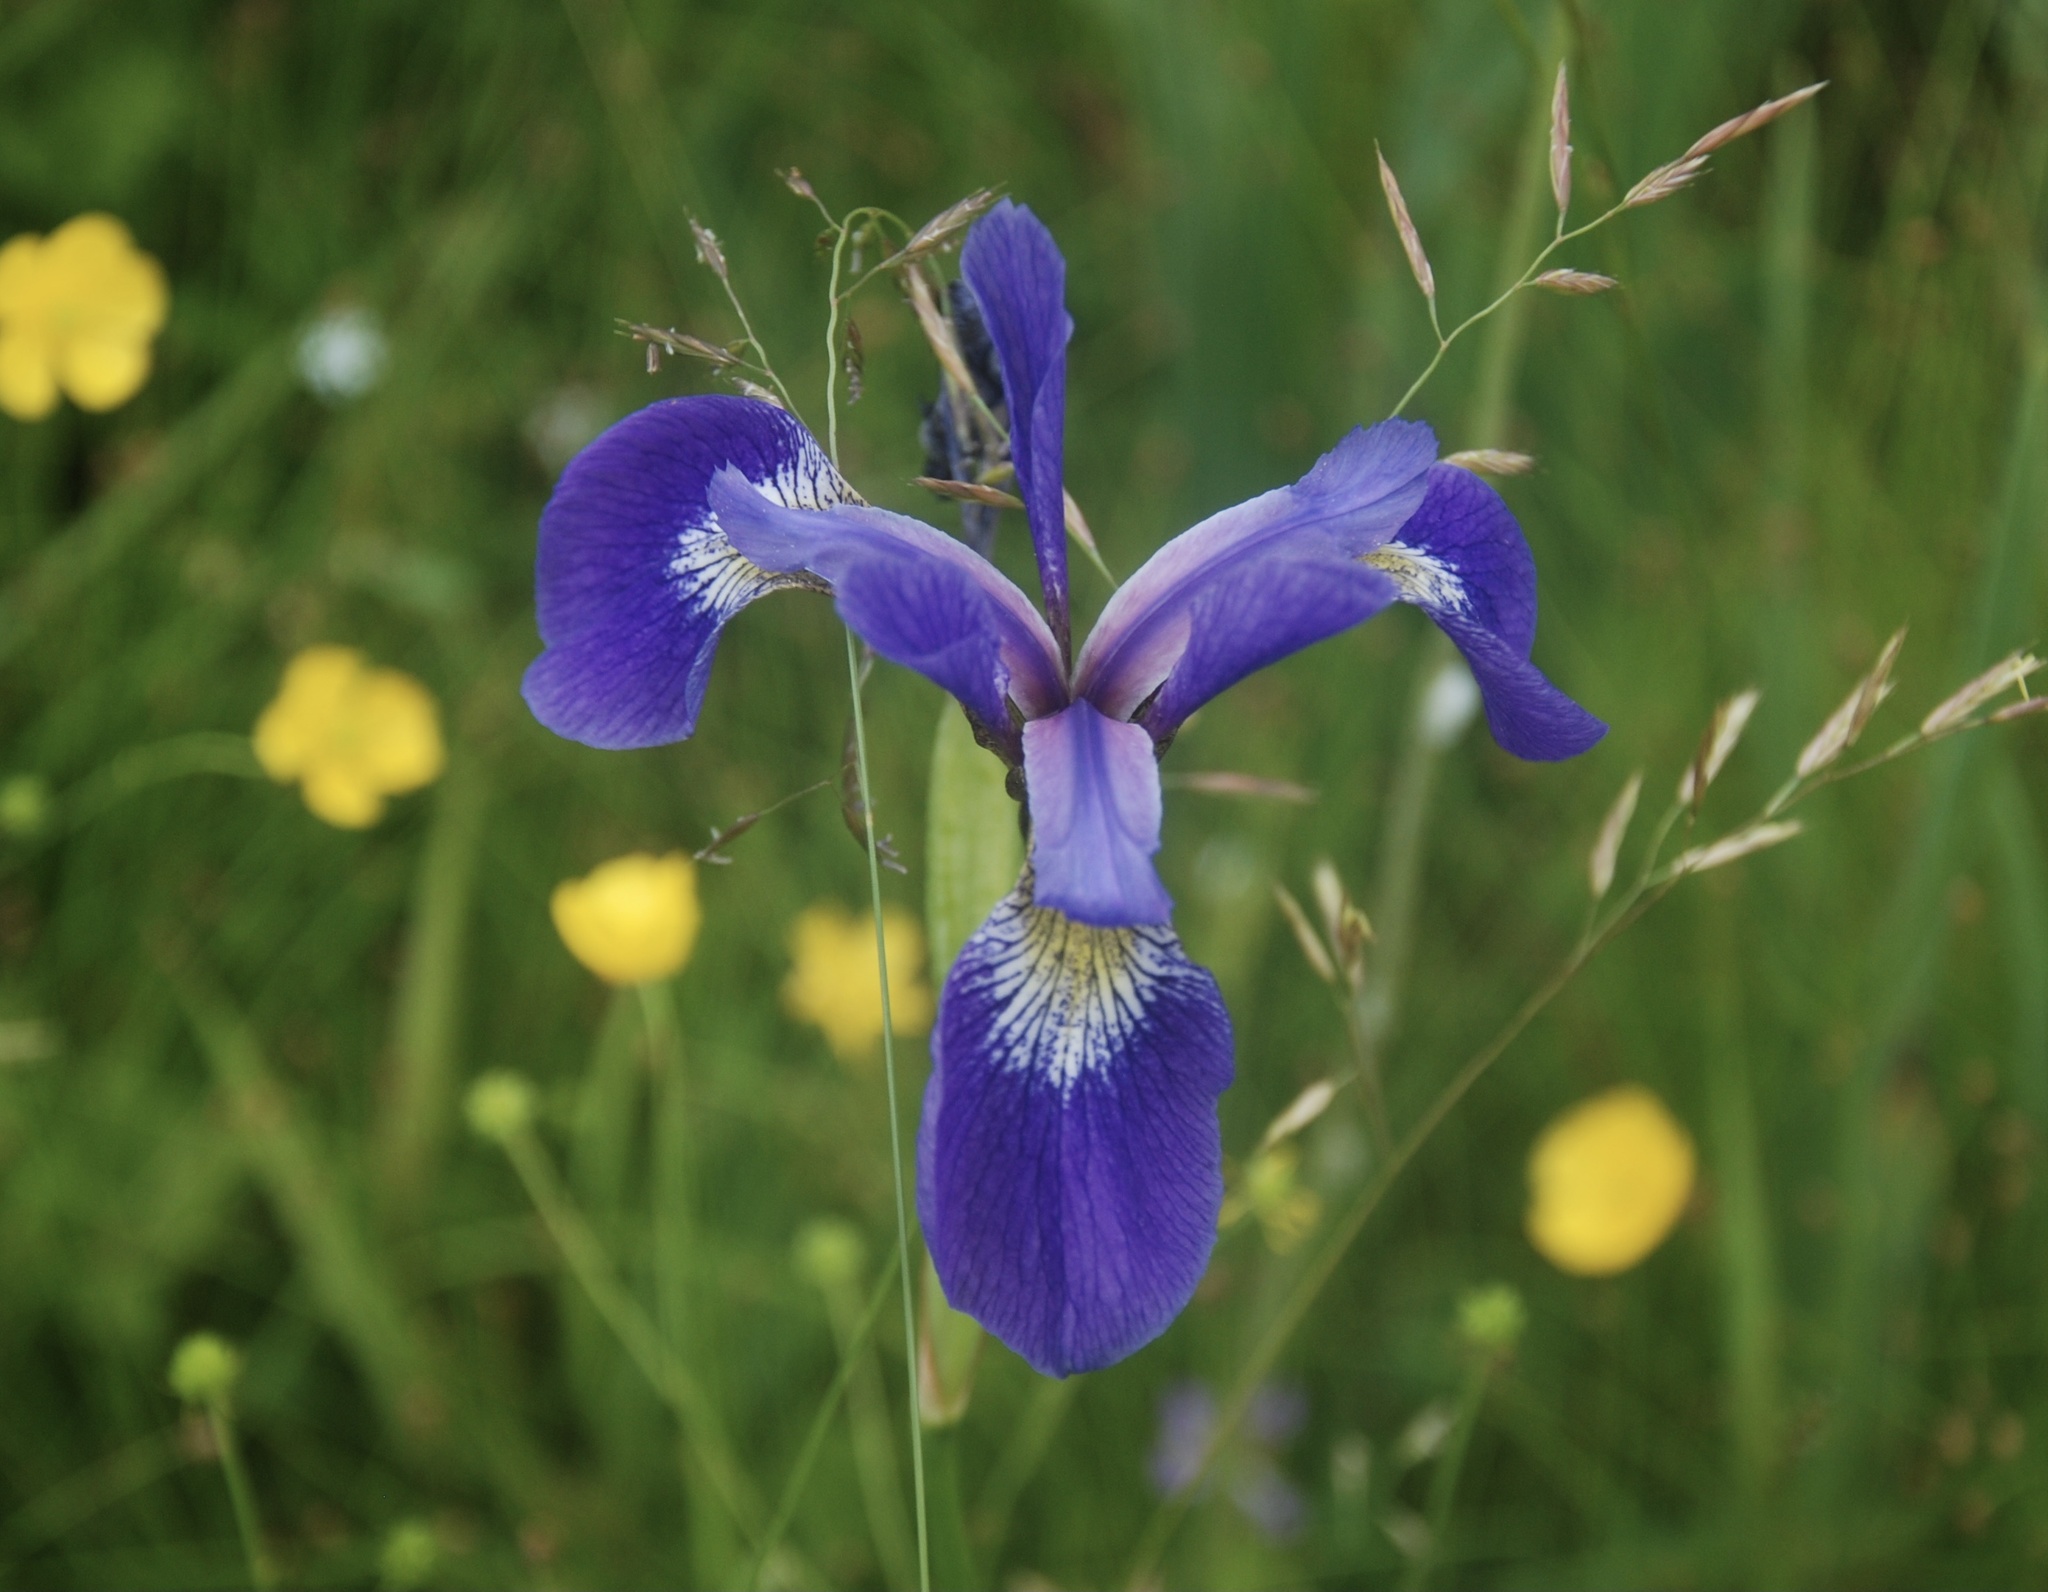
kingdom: Plantae
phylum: Tracheophyta
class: Liliopsida
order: Asparagales
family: Iridaceae
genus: Iris
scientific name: Iris versicolor
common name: Purple iris
